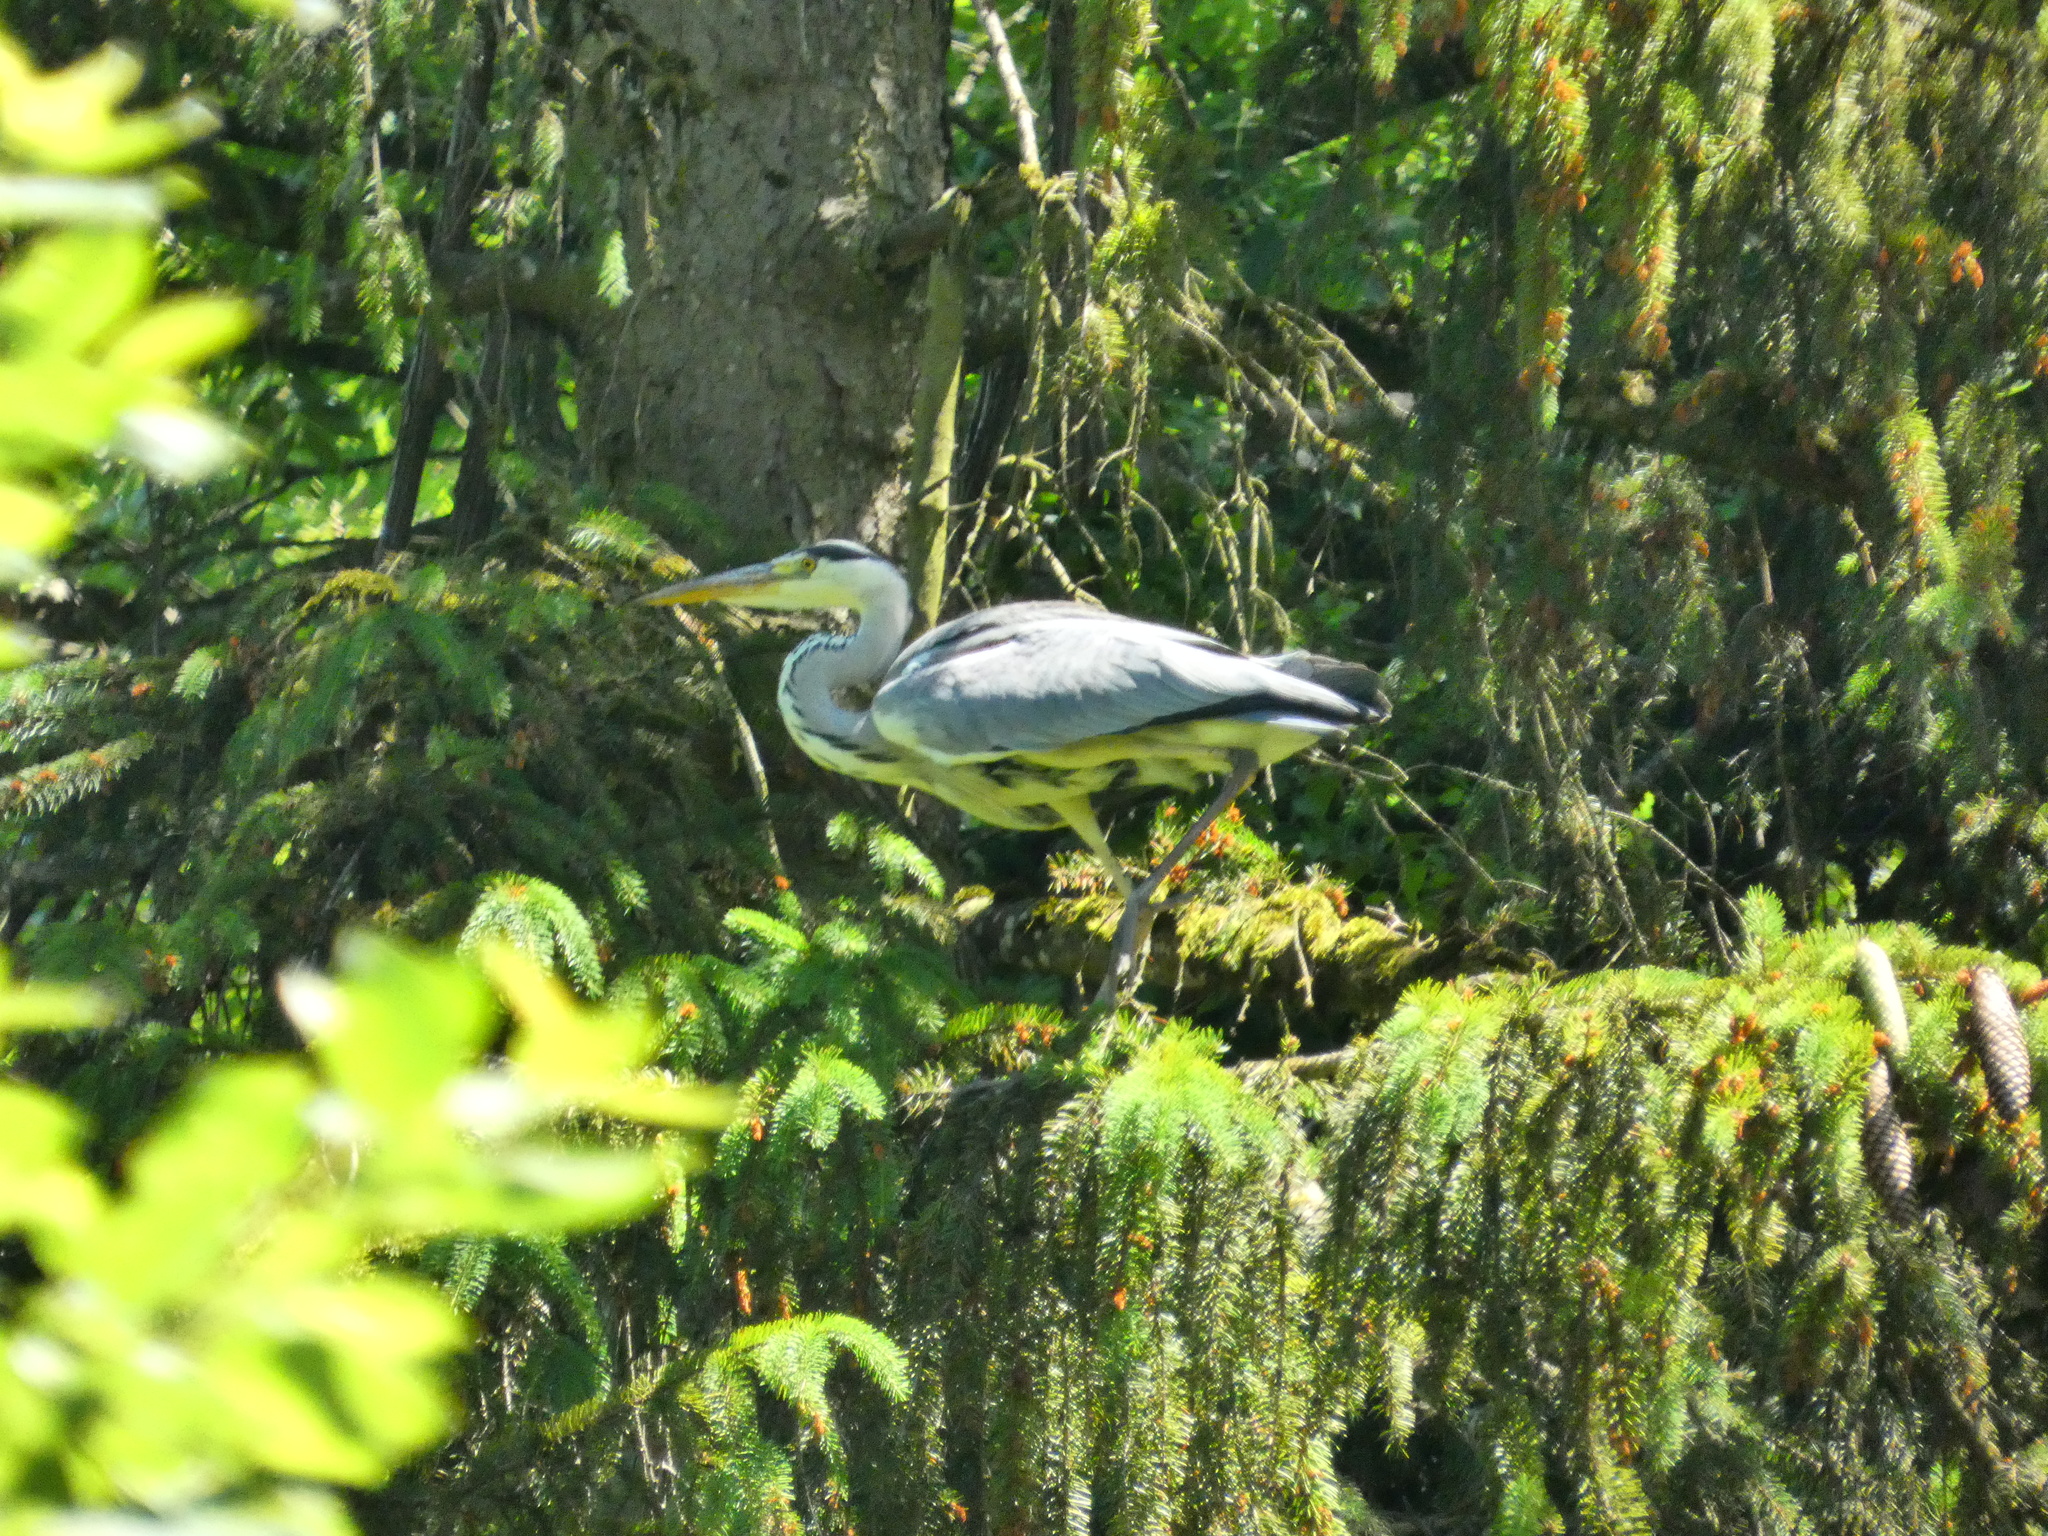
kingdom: Animalia
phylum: Chordata
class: Aves
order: Pelecaniformes
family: Ardeidae
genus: Ardea
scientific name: Ardea cinerea
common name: Grey heron
